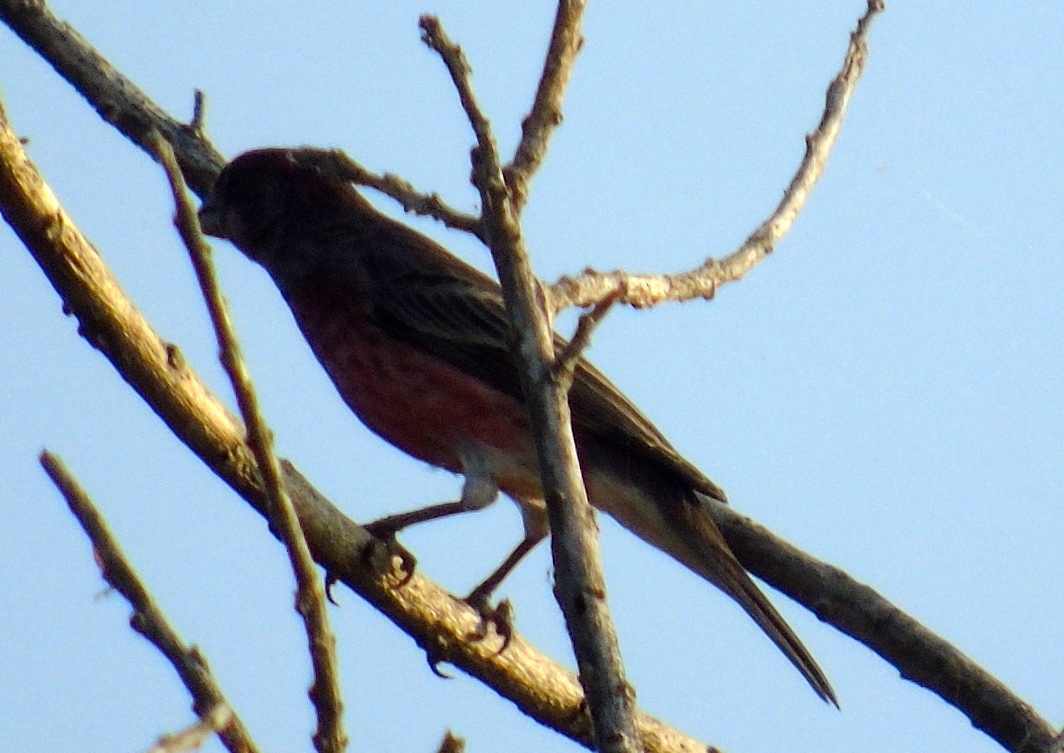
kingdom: Animalia
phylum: Chordata
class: Aves
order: Passeriformes
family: Fringillidae
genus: Haemorhous
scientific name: Haemorhous mexicanus
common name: House finch
